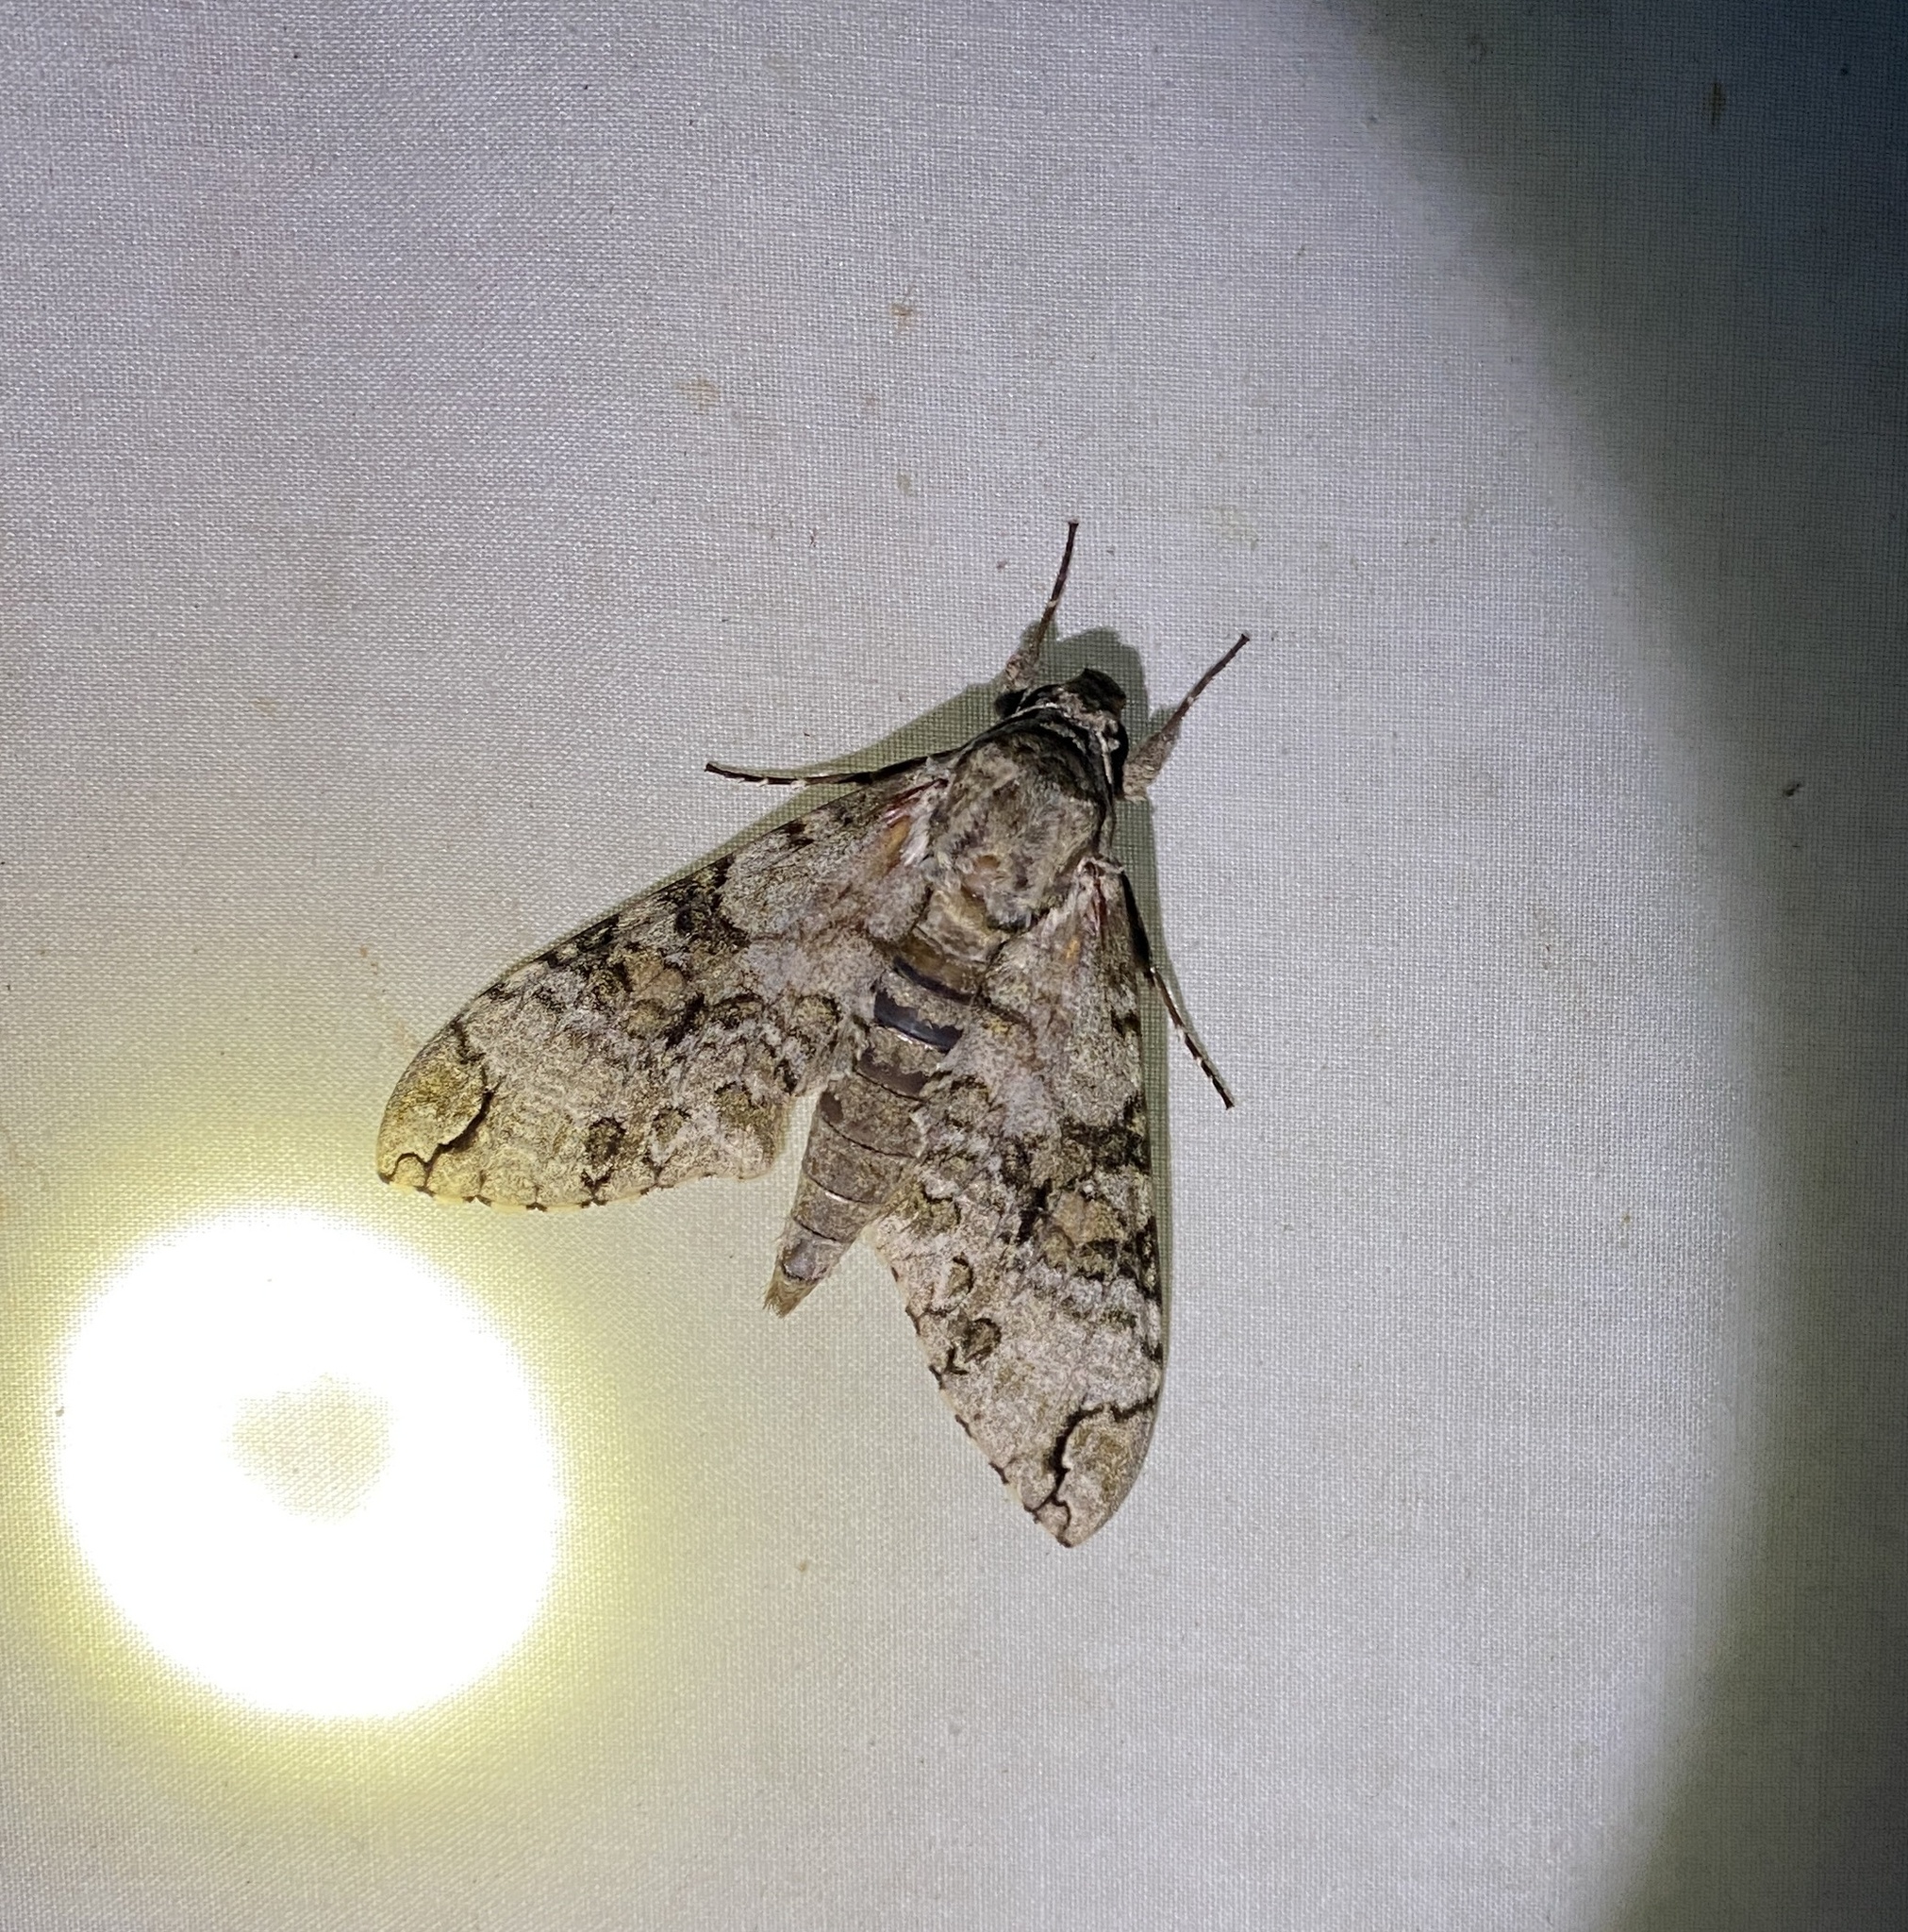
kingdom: Animalia
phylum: Arthropoda
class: Insecta
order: Lepidoptera
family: Sphingidae
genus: Manduca
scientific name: Manduca florestan
